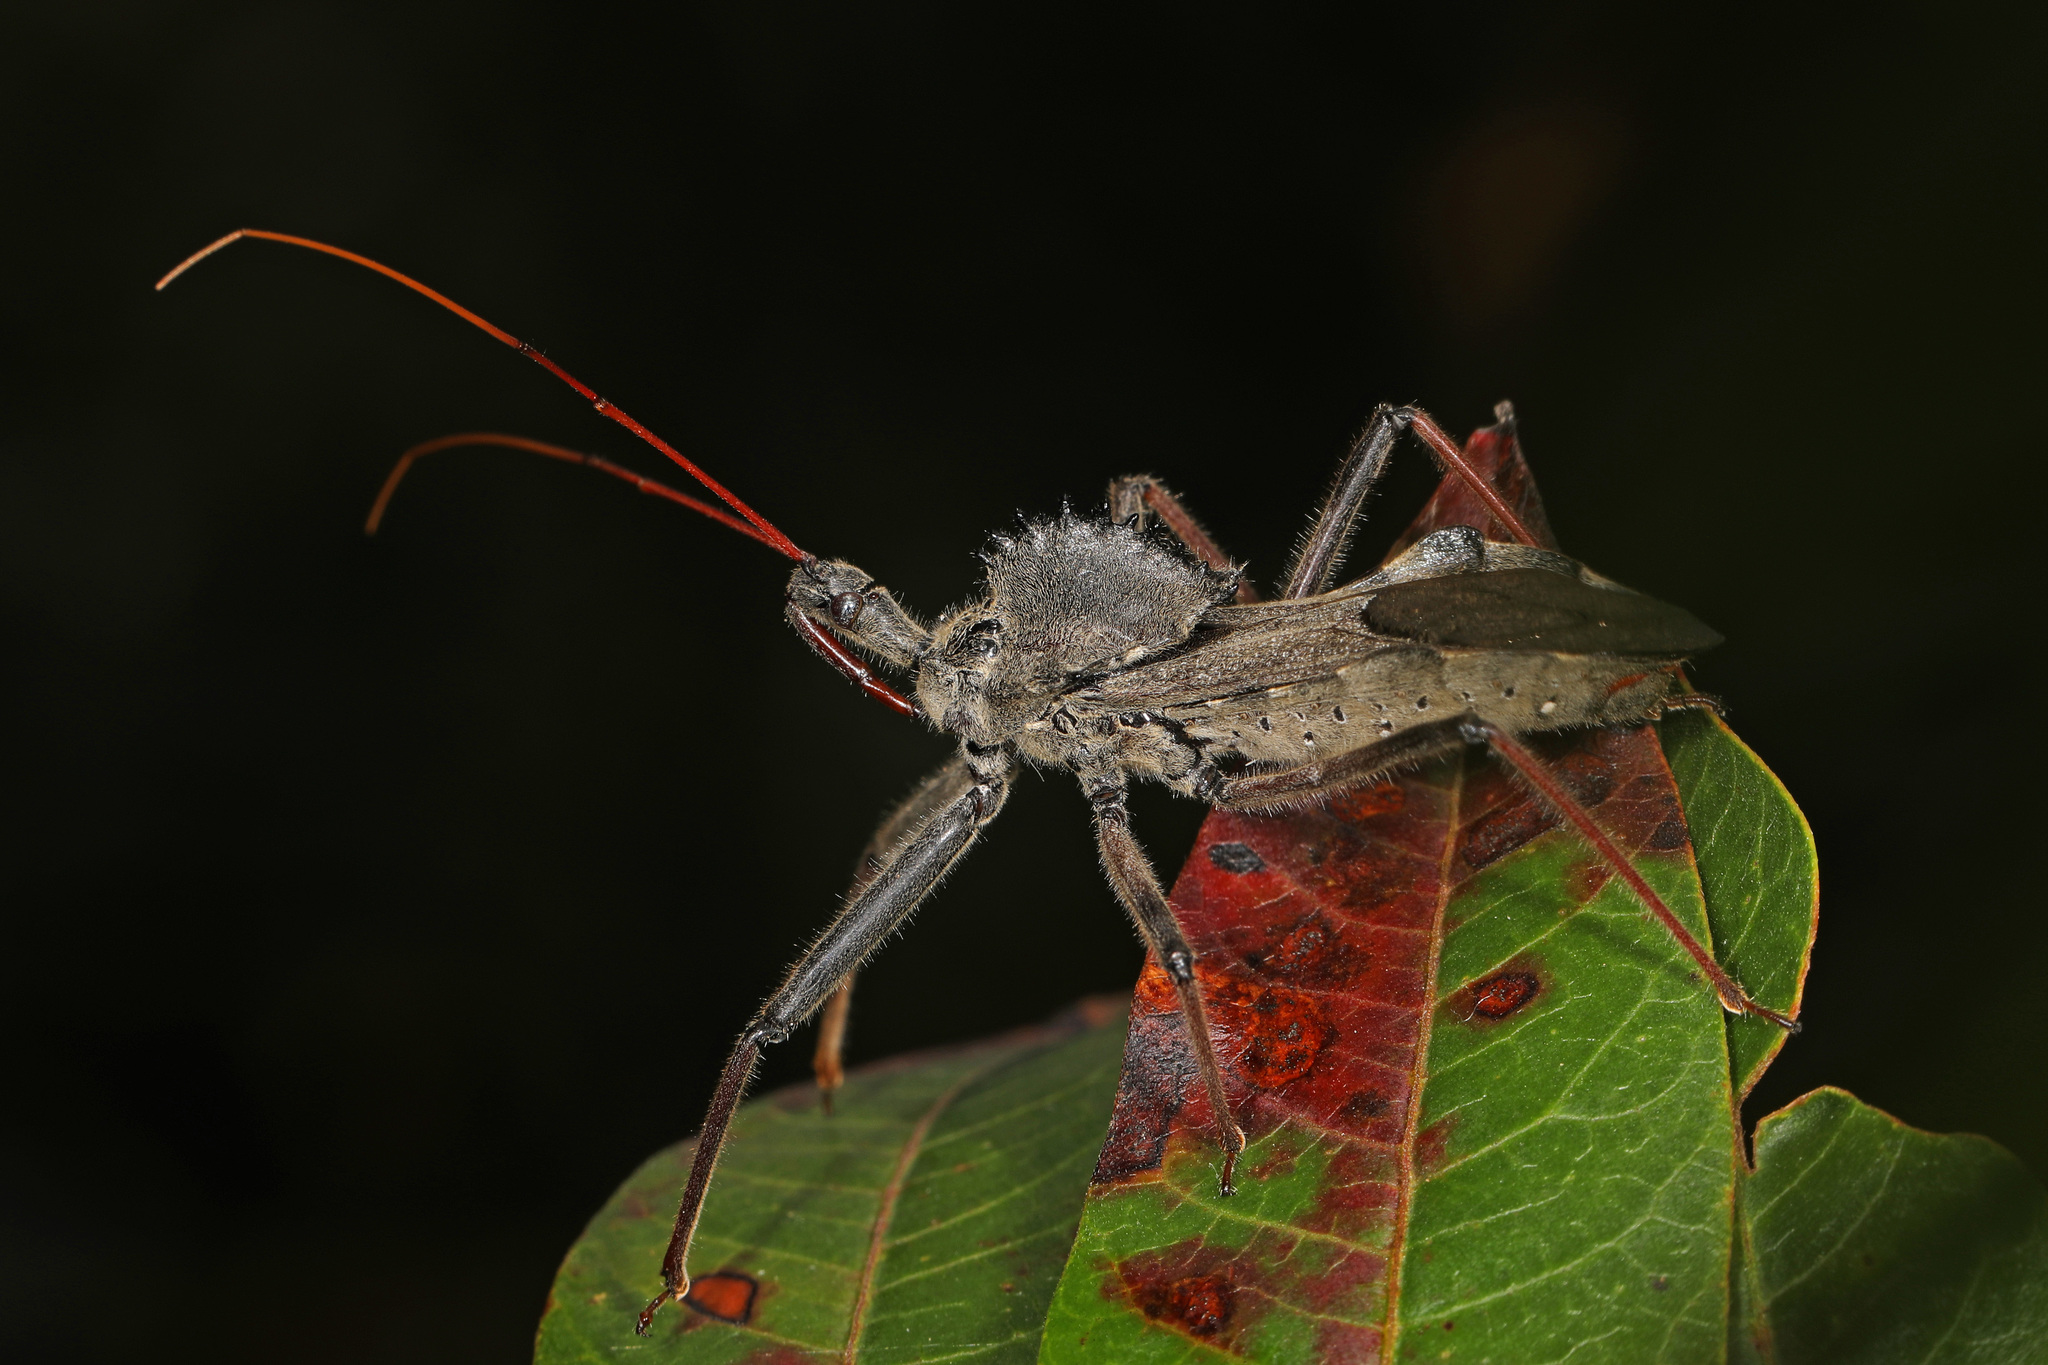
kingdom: Animalia
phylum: Arthropoda
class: Insecta
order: Hemiptera
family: Reduviidae
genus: Arilus
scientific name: Arilus cristatus
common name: North american wheel bug
